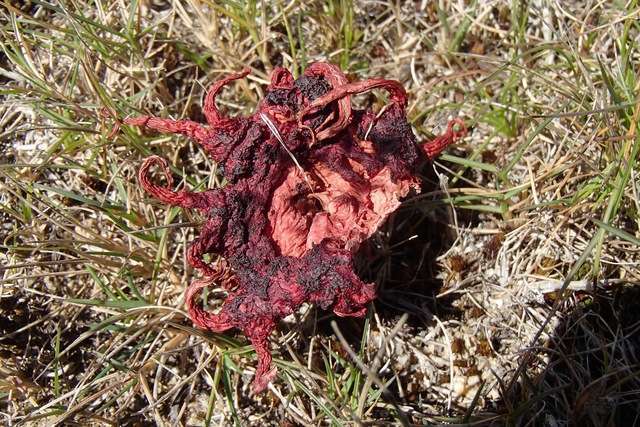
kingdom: Fungi
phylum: Basidiomycota
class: Agaricomycetes
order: Phallales
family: Phallaceae
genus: Aseroe
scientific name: Aseroe rubra
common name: Starfish fungus
